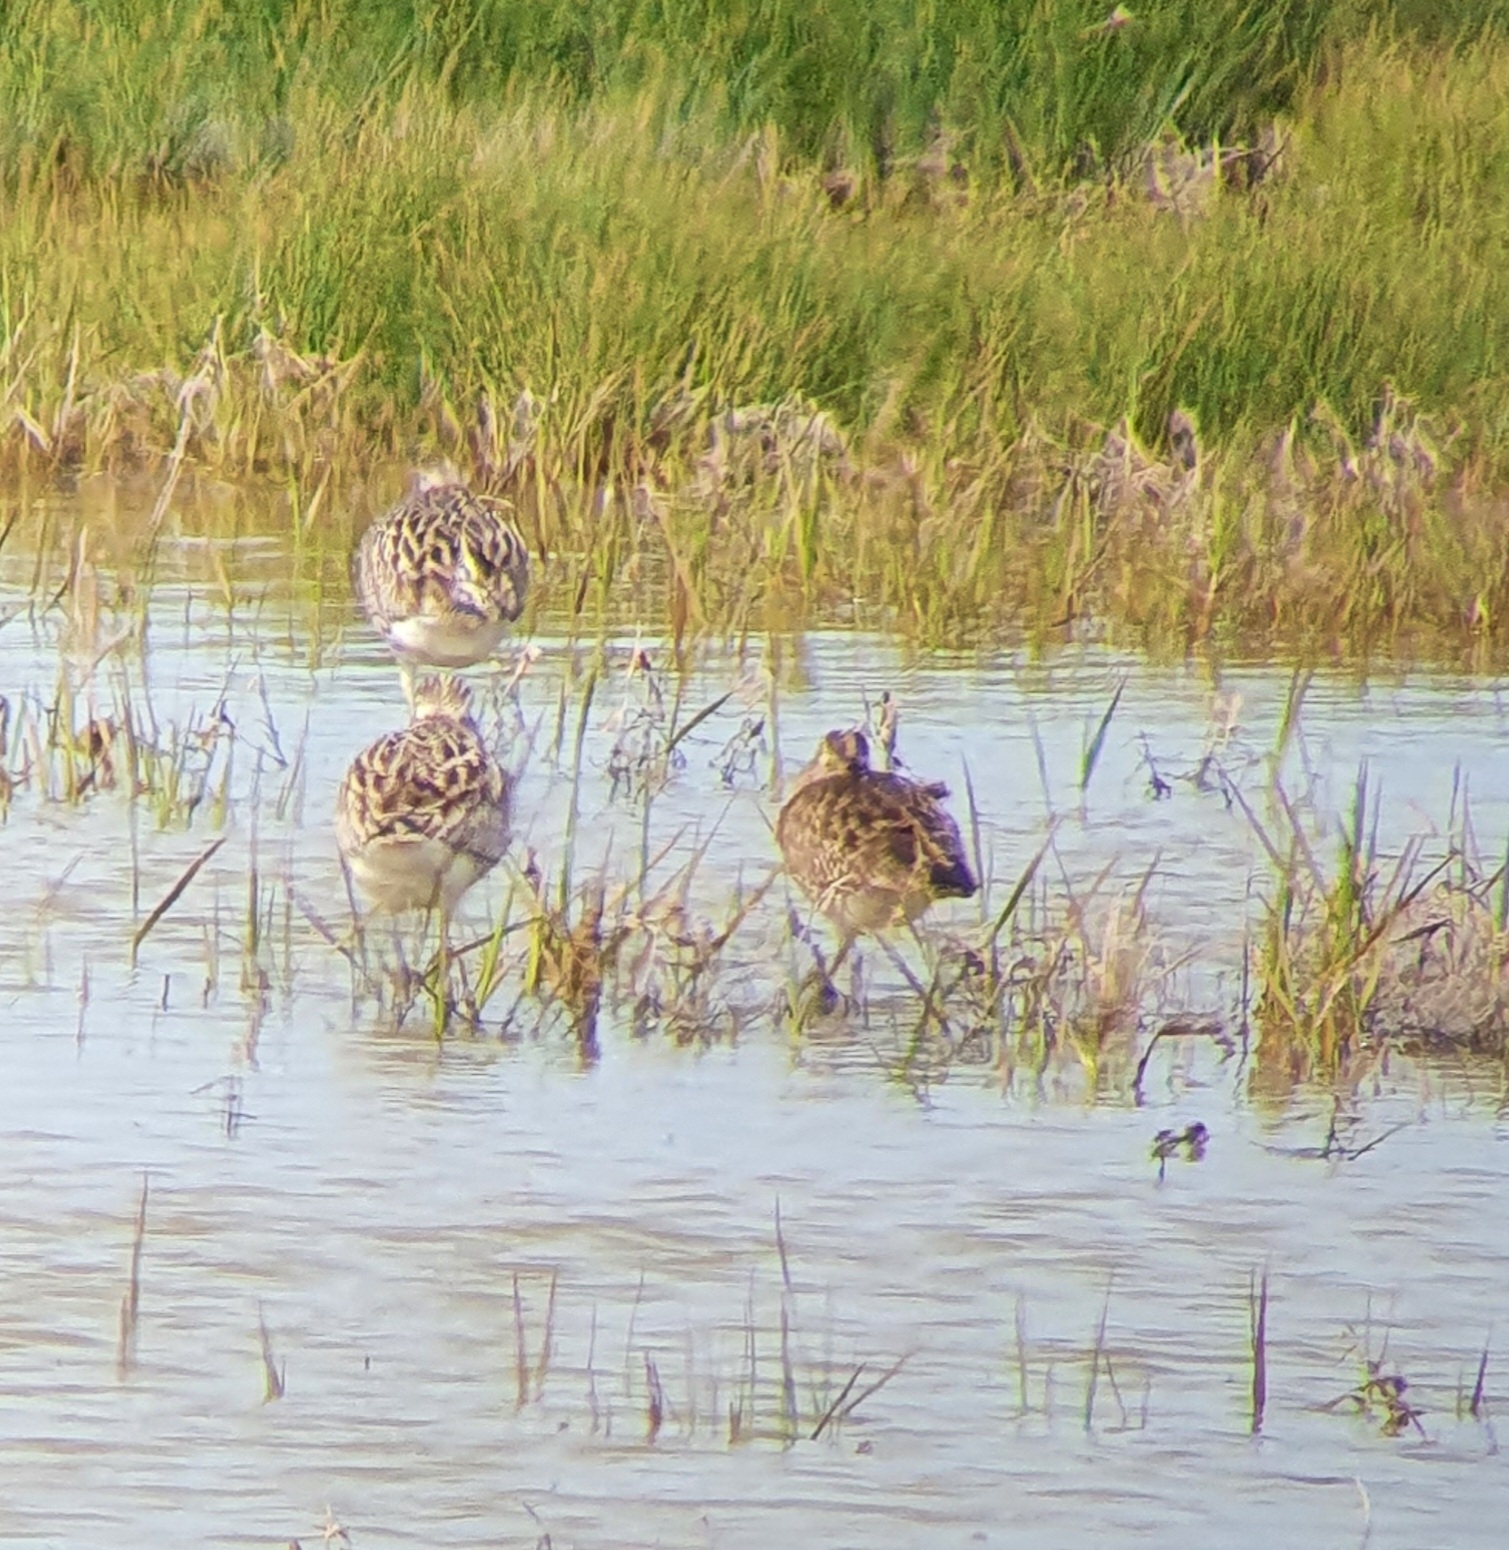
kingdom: Animalia
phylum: Chordata
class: Aves
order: Charadriiformes
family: Scolopacidae
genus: Numenius
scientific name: Numenius arquata
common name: Eurasian curlew
